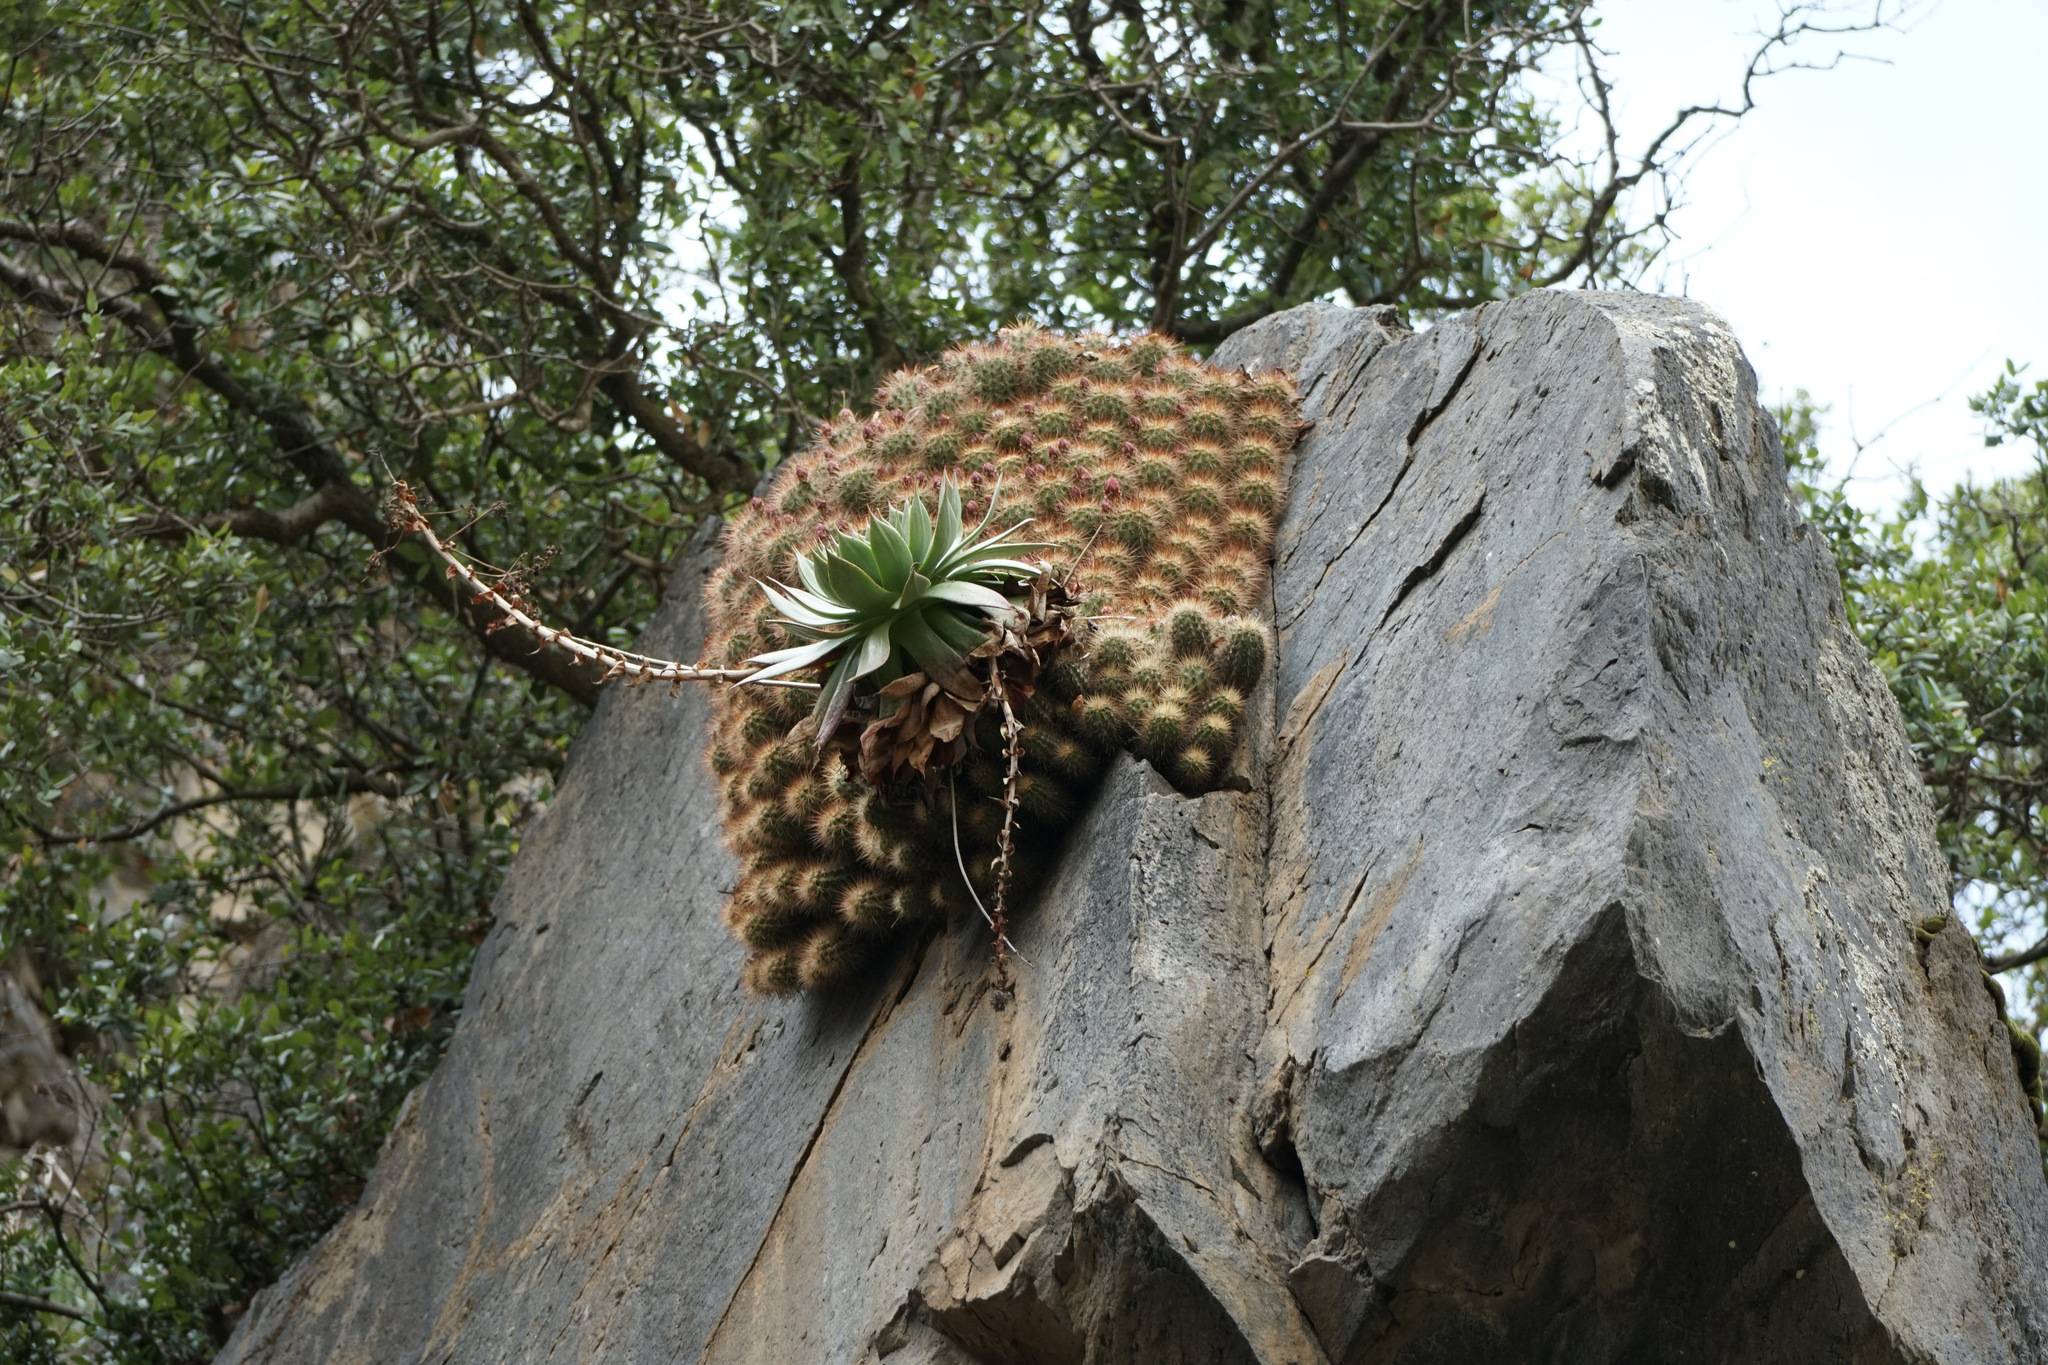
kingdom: Plantae
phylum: Tracheophyta
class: Magnoliopsida
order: Caryophyllales
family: Cactaceae
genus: Echinocereus
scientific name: Echinocereus pacificus
